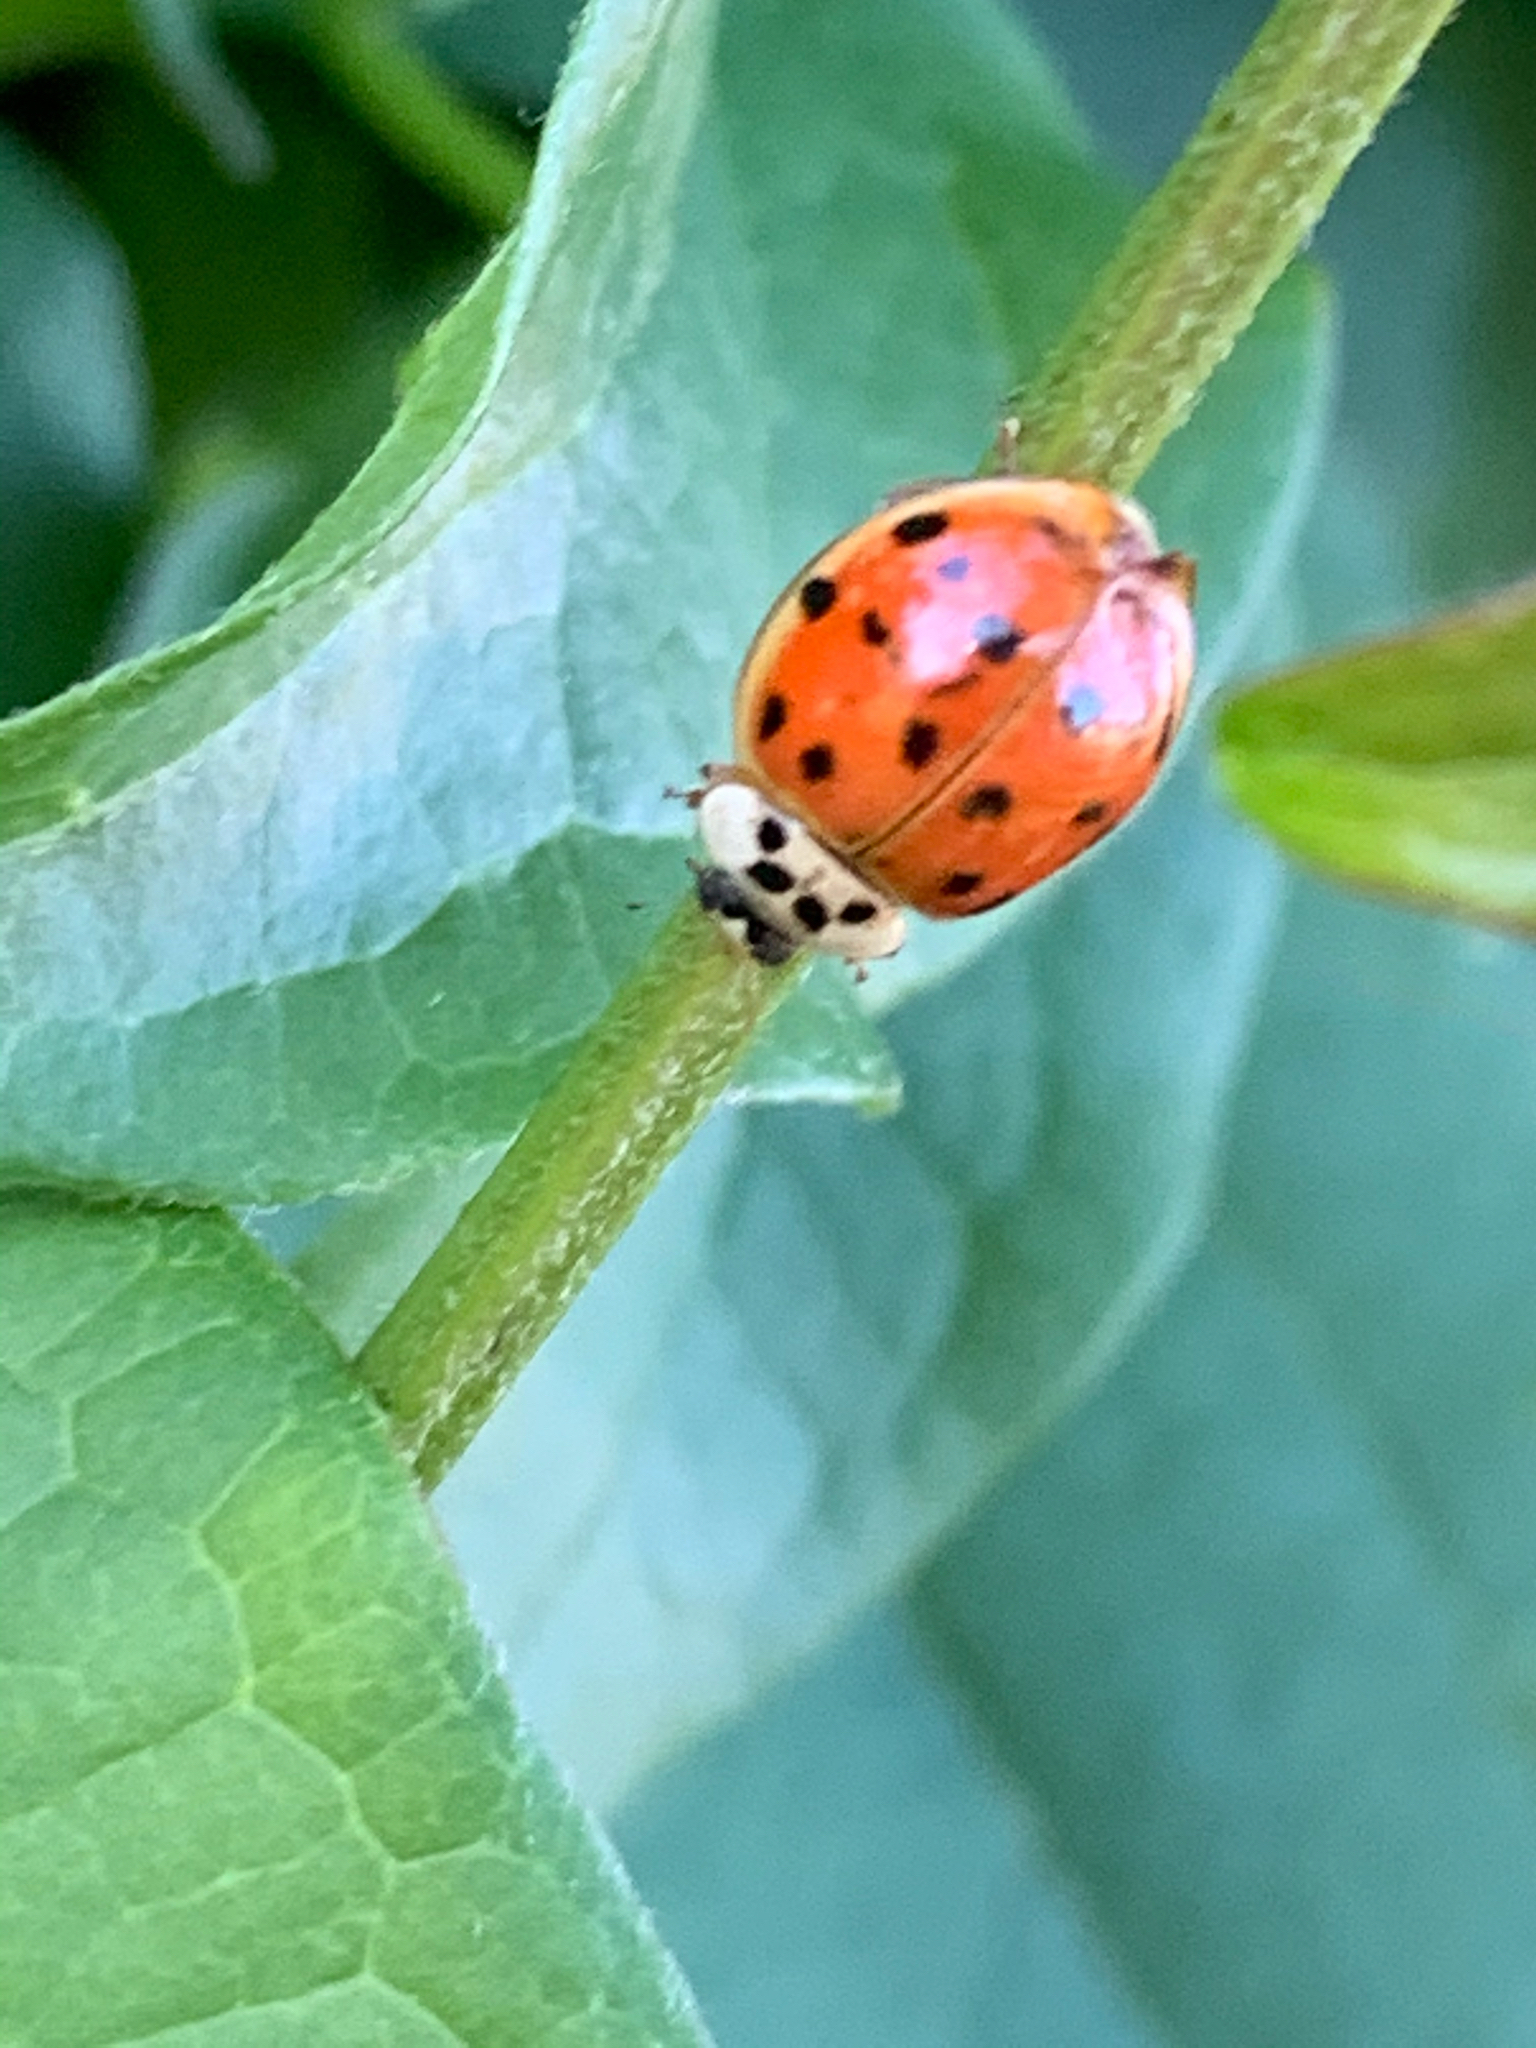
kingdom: Animalia
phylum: Arthropoda
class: Insecta
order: Coleoptera
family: Coccinellidae
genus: Harmonia
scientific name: Harmonia axyridis
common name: Harlequin ladybird
